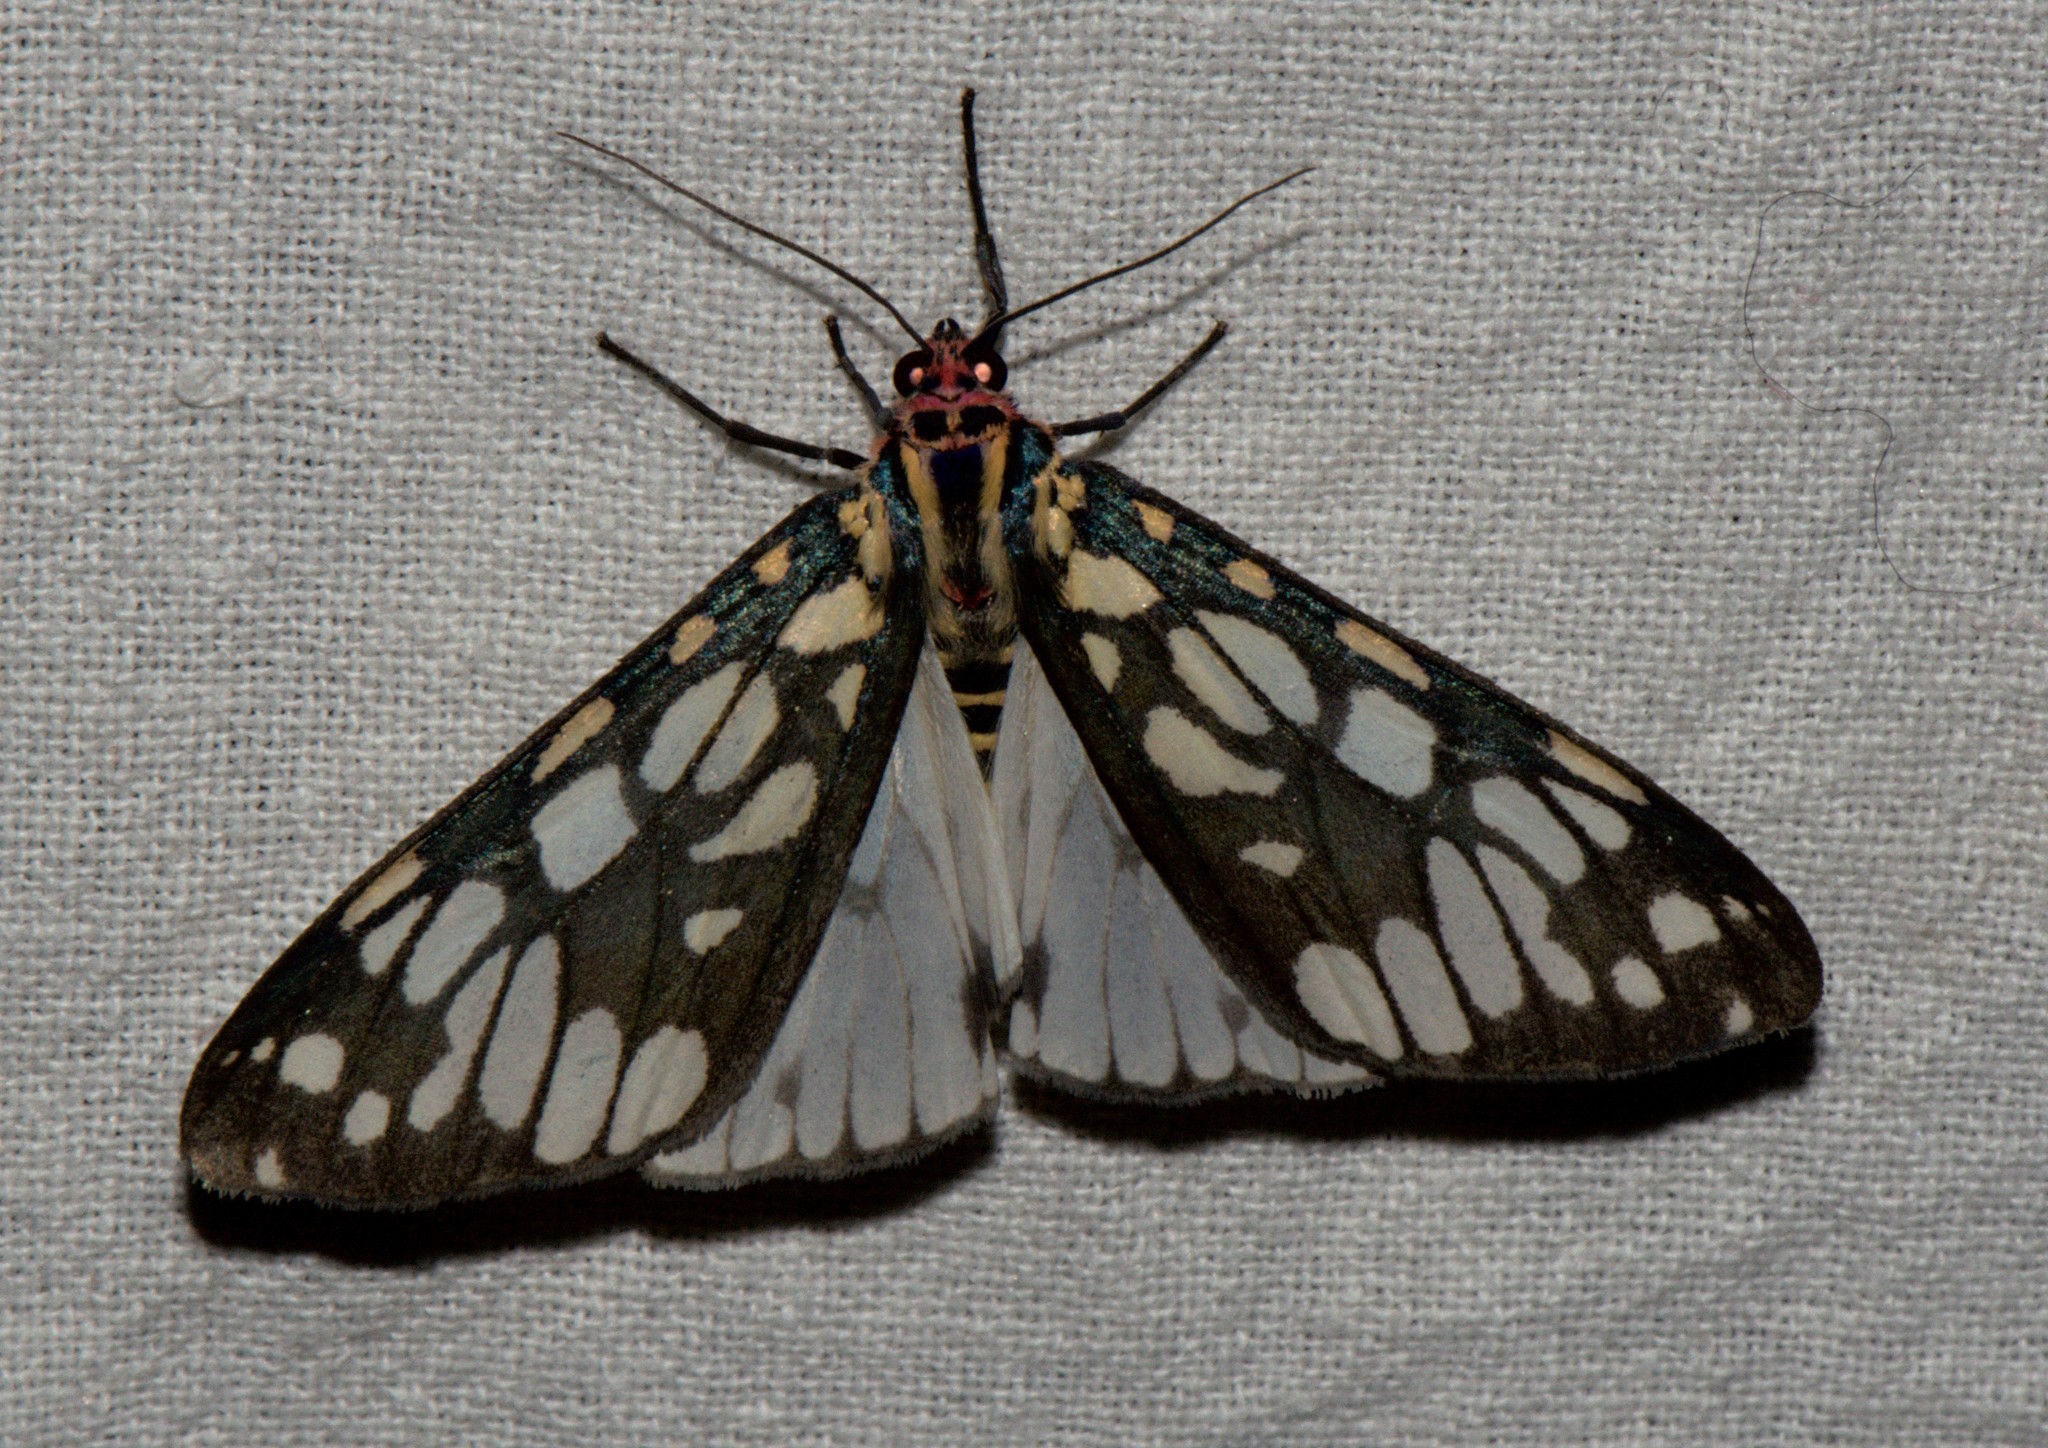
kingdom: Animalia
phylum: Arthropoda
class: Insecta
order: Lepidoptera
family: Erebidae
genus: Callindra
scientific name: Callindra nyctemerata
